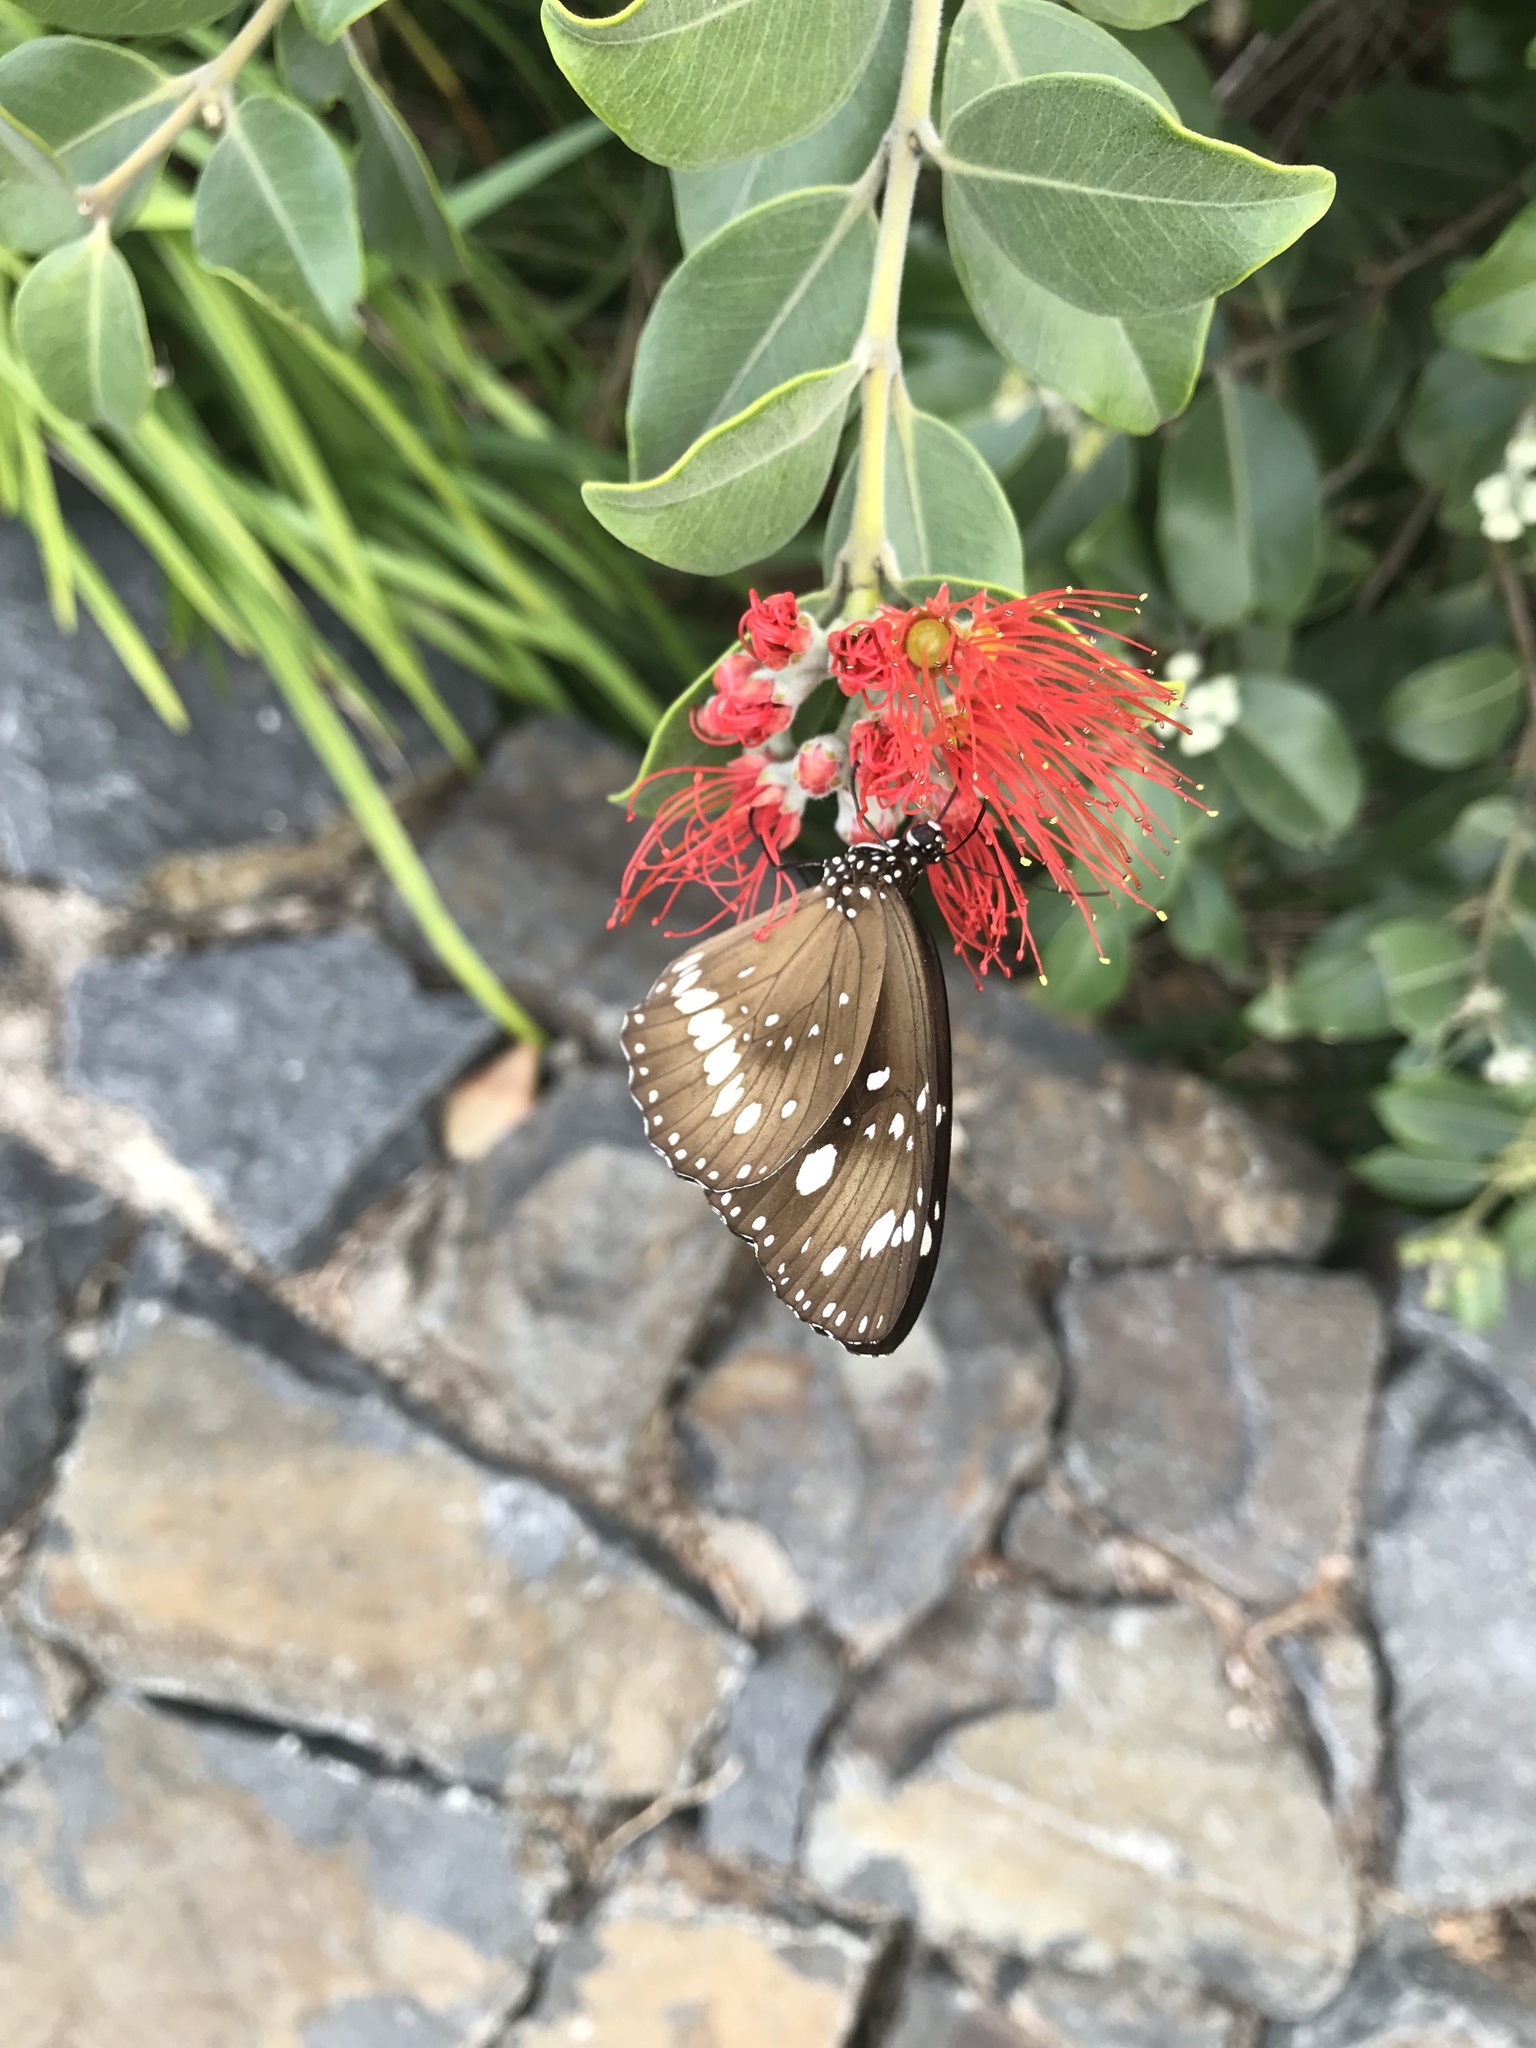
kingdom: Animalia
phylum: Arthropoda
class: Insecta
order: Lepidoptera
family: Nymphalidae
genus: Euploea
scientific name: Euploea core
